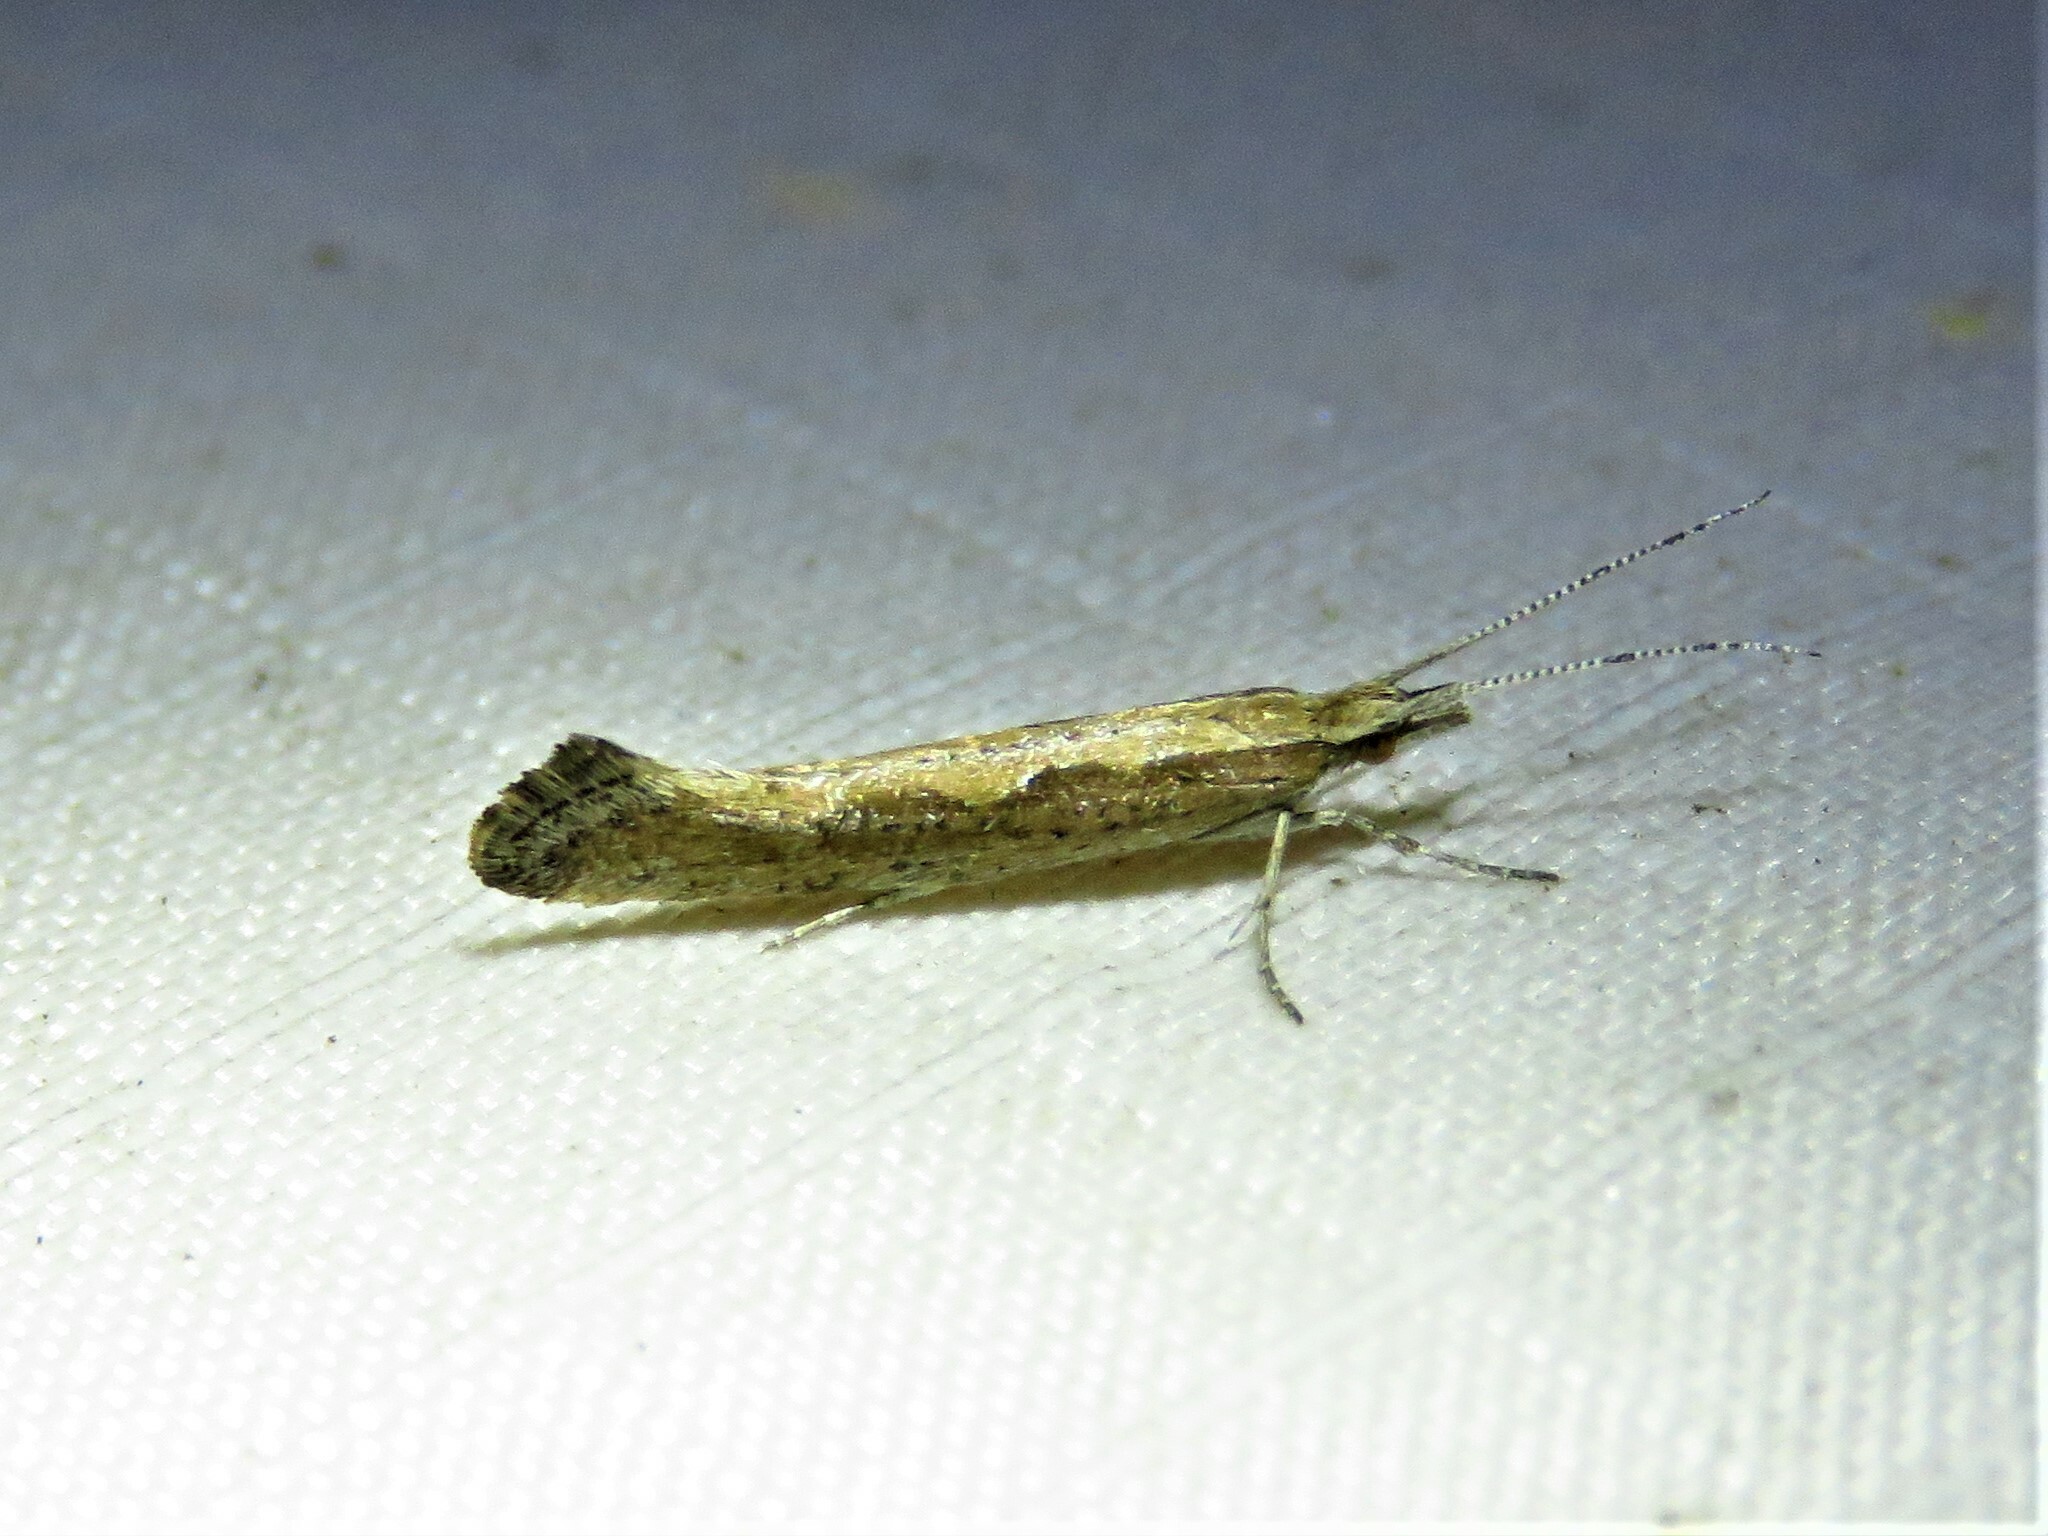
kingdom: Animalia
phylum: Arthropoda
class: Insecta
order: Lepidoptera
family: Plutellidae
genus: Plutella
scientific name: Plutella xylostella
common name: Diamond-back moth
